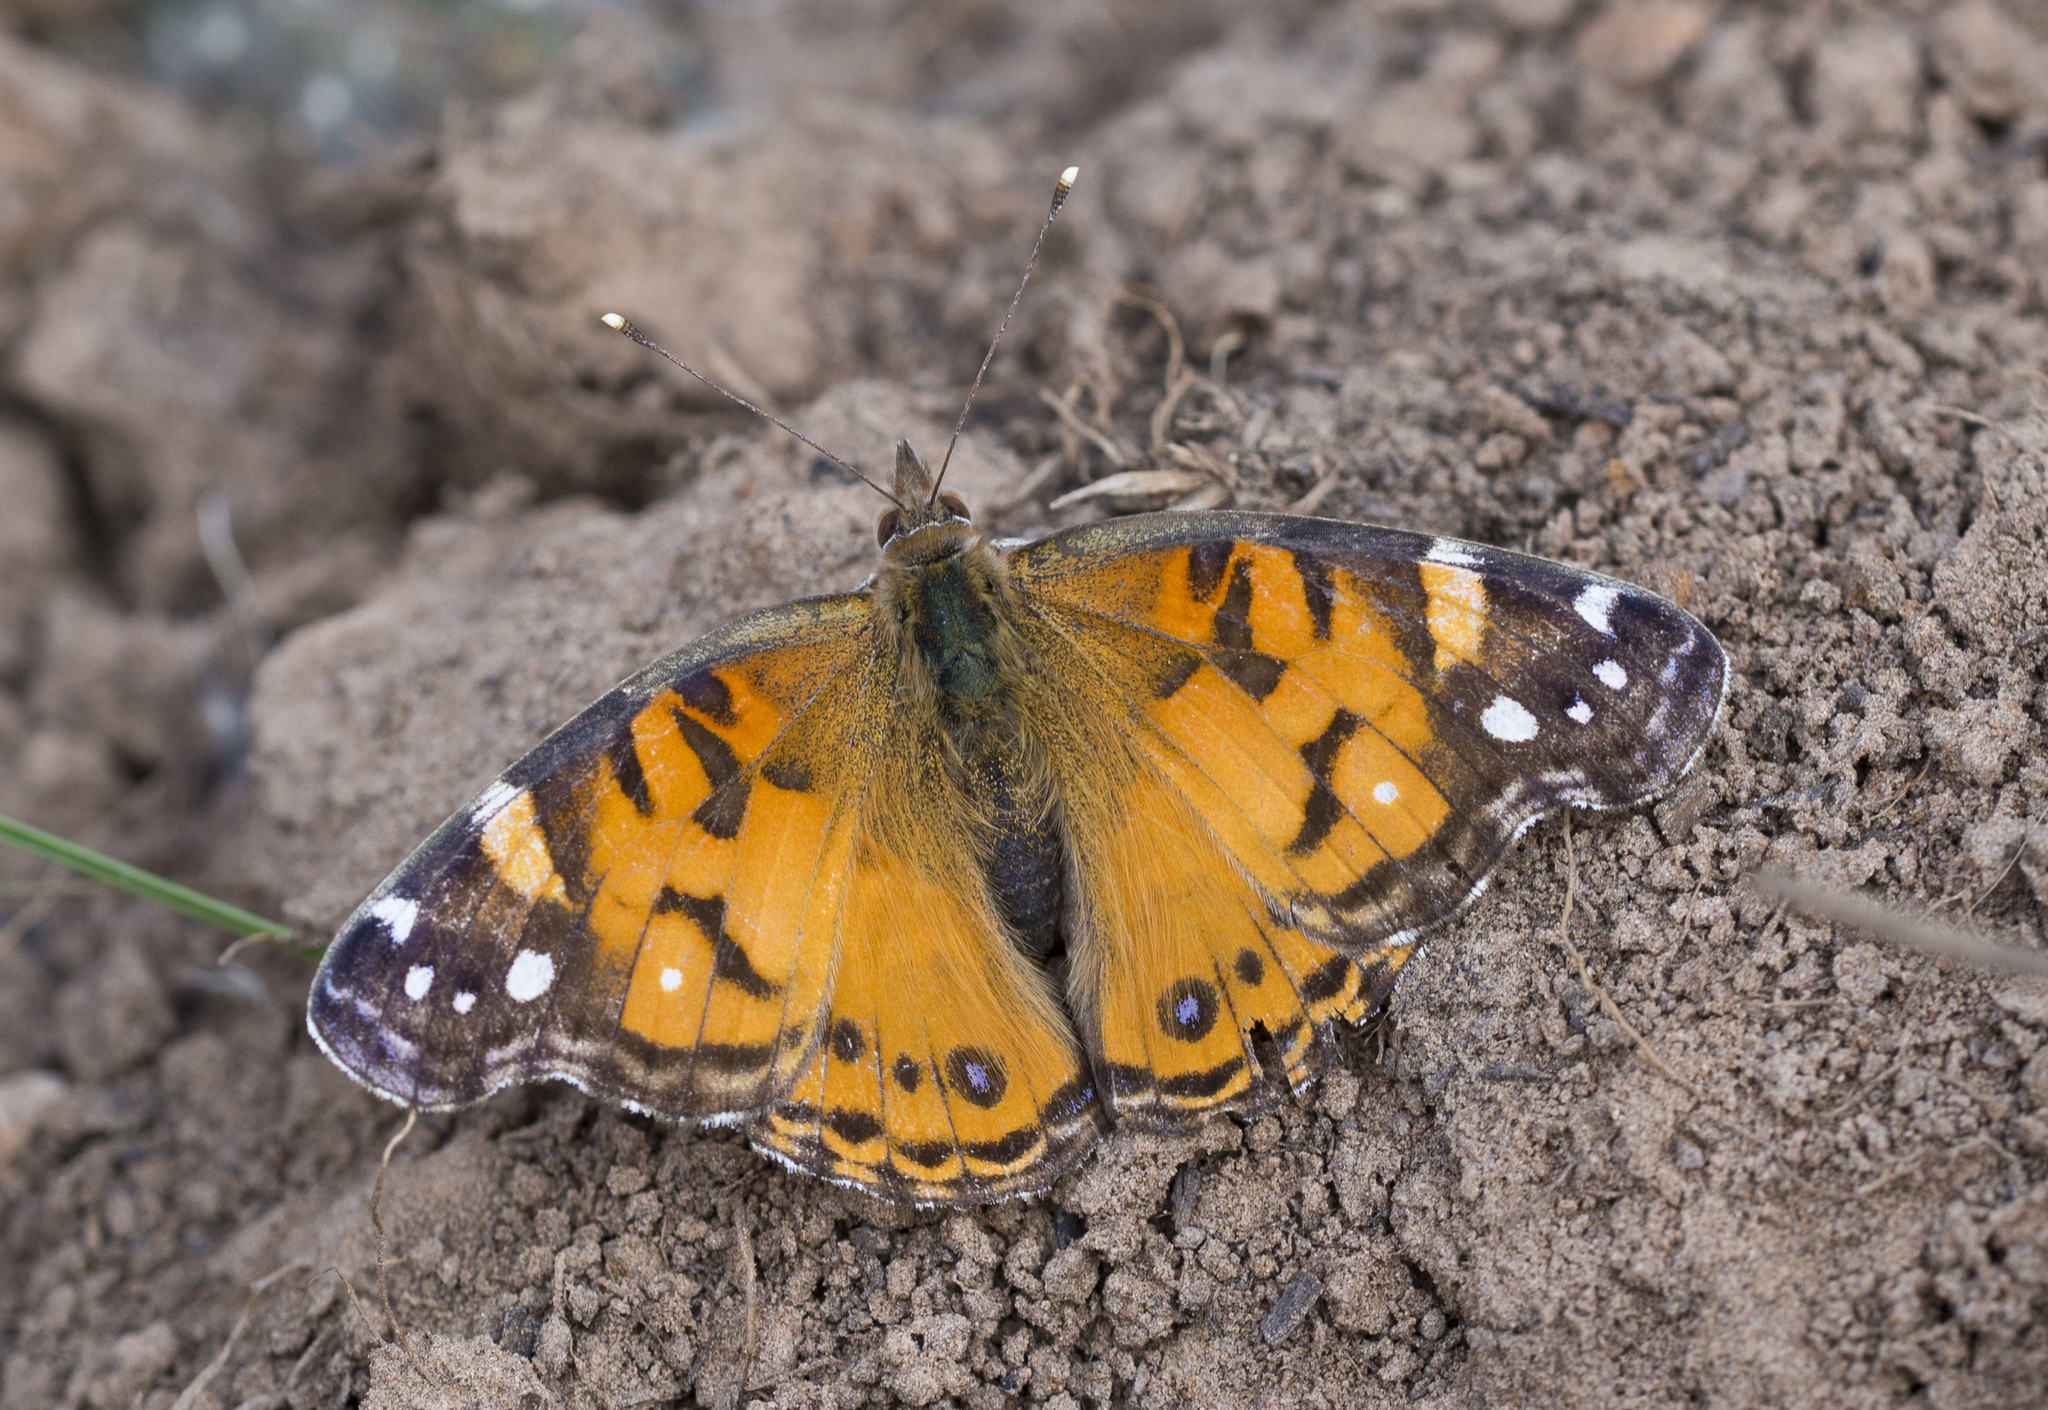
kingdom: Animalia
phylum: Arthropoda
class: Insecta
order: Lepidoptera
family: Nymphalidae
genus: Vanessa
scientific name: Vanessa virginiensis
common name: American lady
